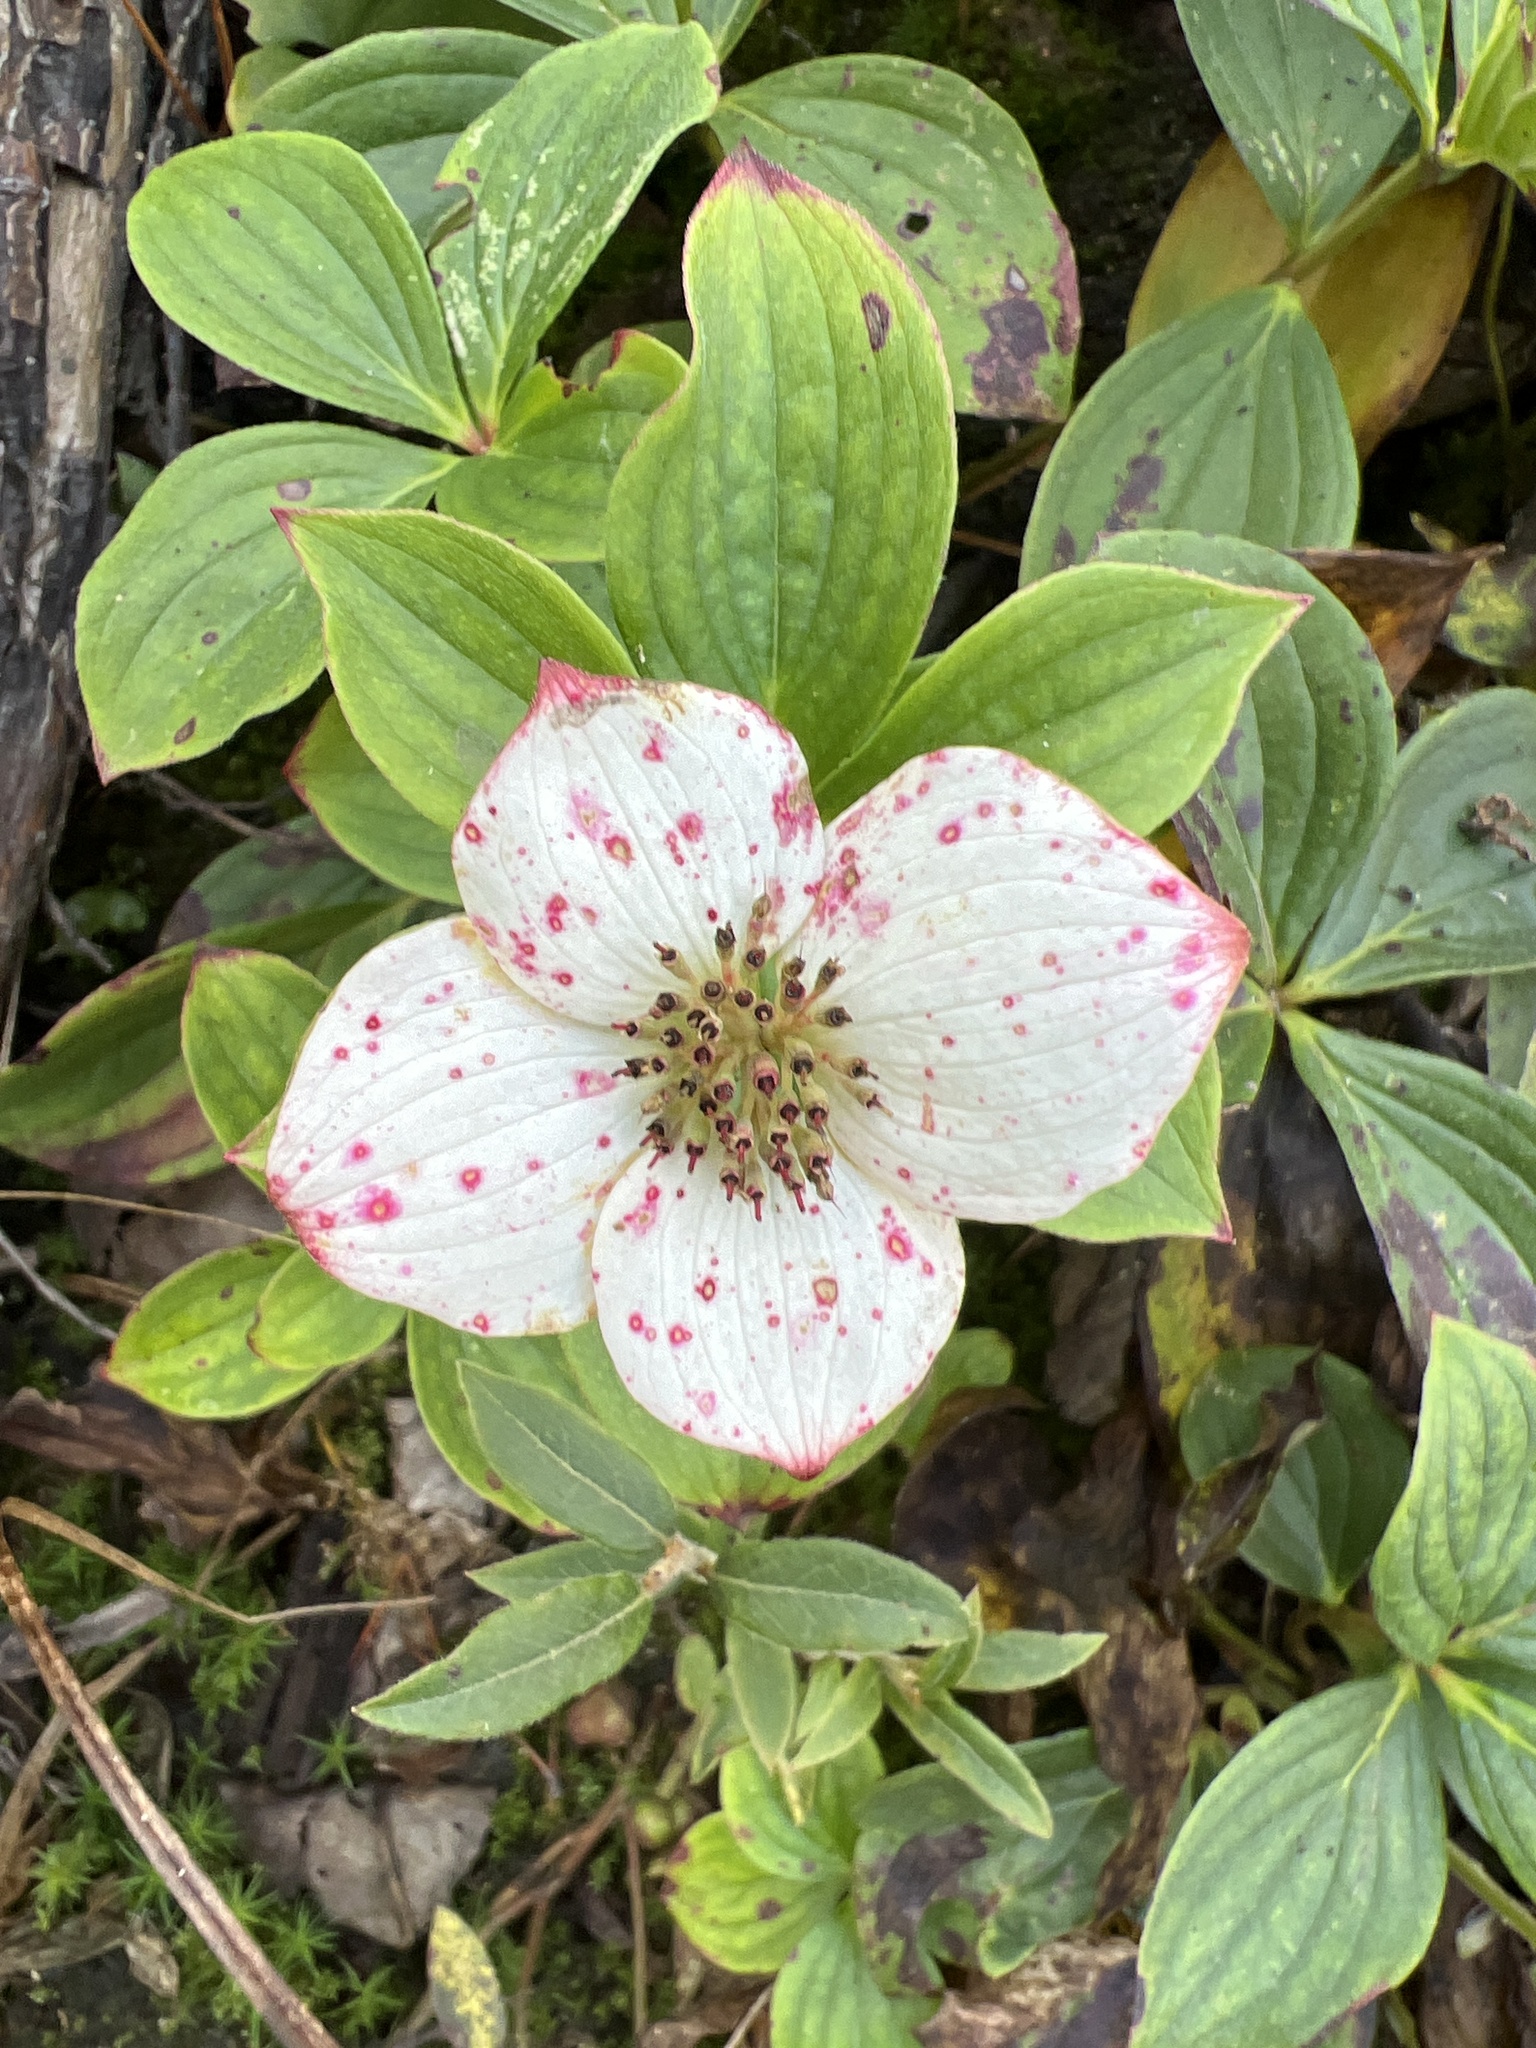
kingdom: Plantae
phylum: Tracheophyta
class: Magnoliopsida
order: Cornales
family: Cornaceae
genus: Cornus
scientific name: Cornus canadensis
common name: Creeping dogwood
